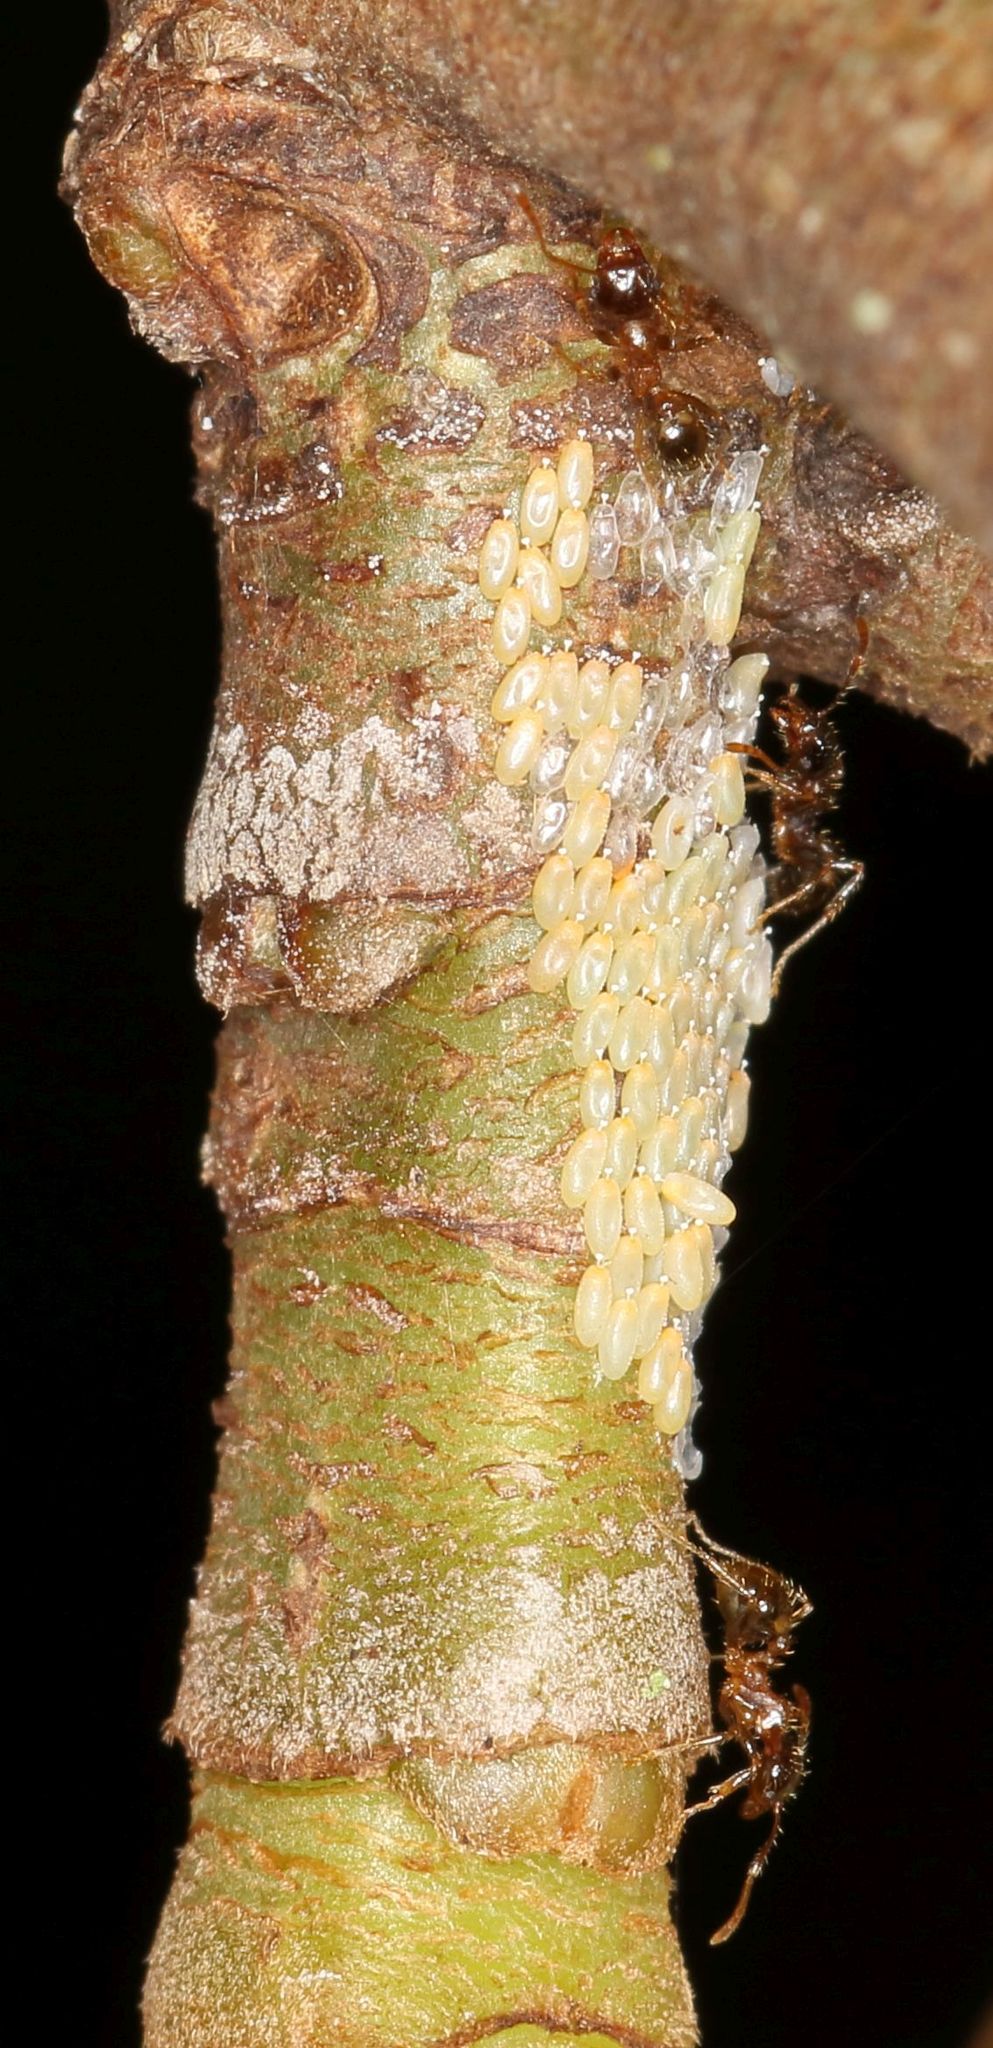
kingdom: Animalia
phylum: Arthropoda
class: Insecta
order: Hymenoptera
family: Formicidae
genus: Pheidole
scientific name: Pheidole megacephala
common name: Bigheaded ant
